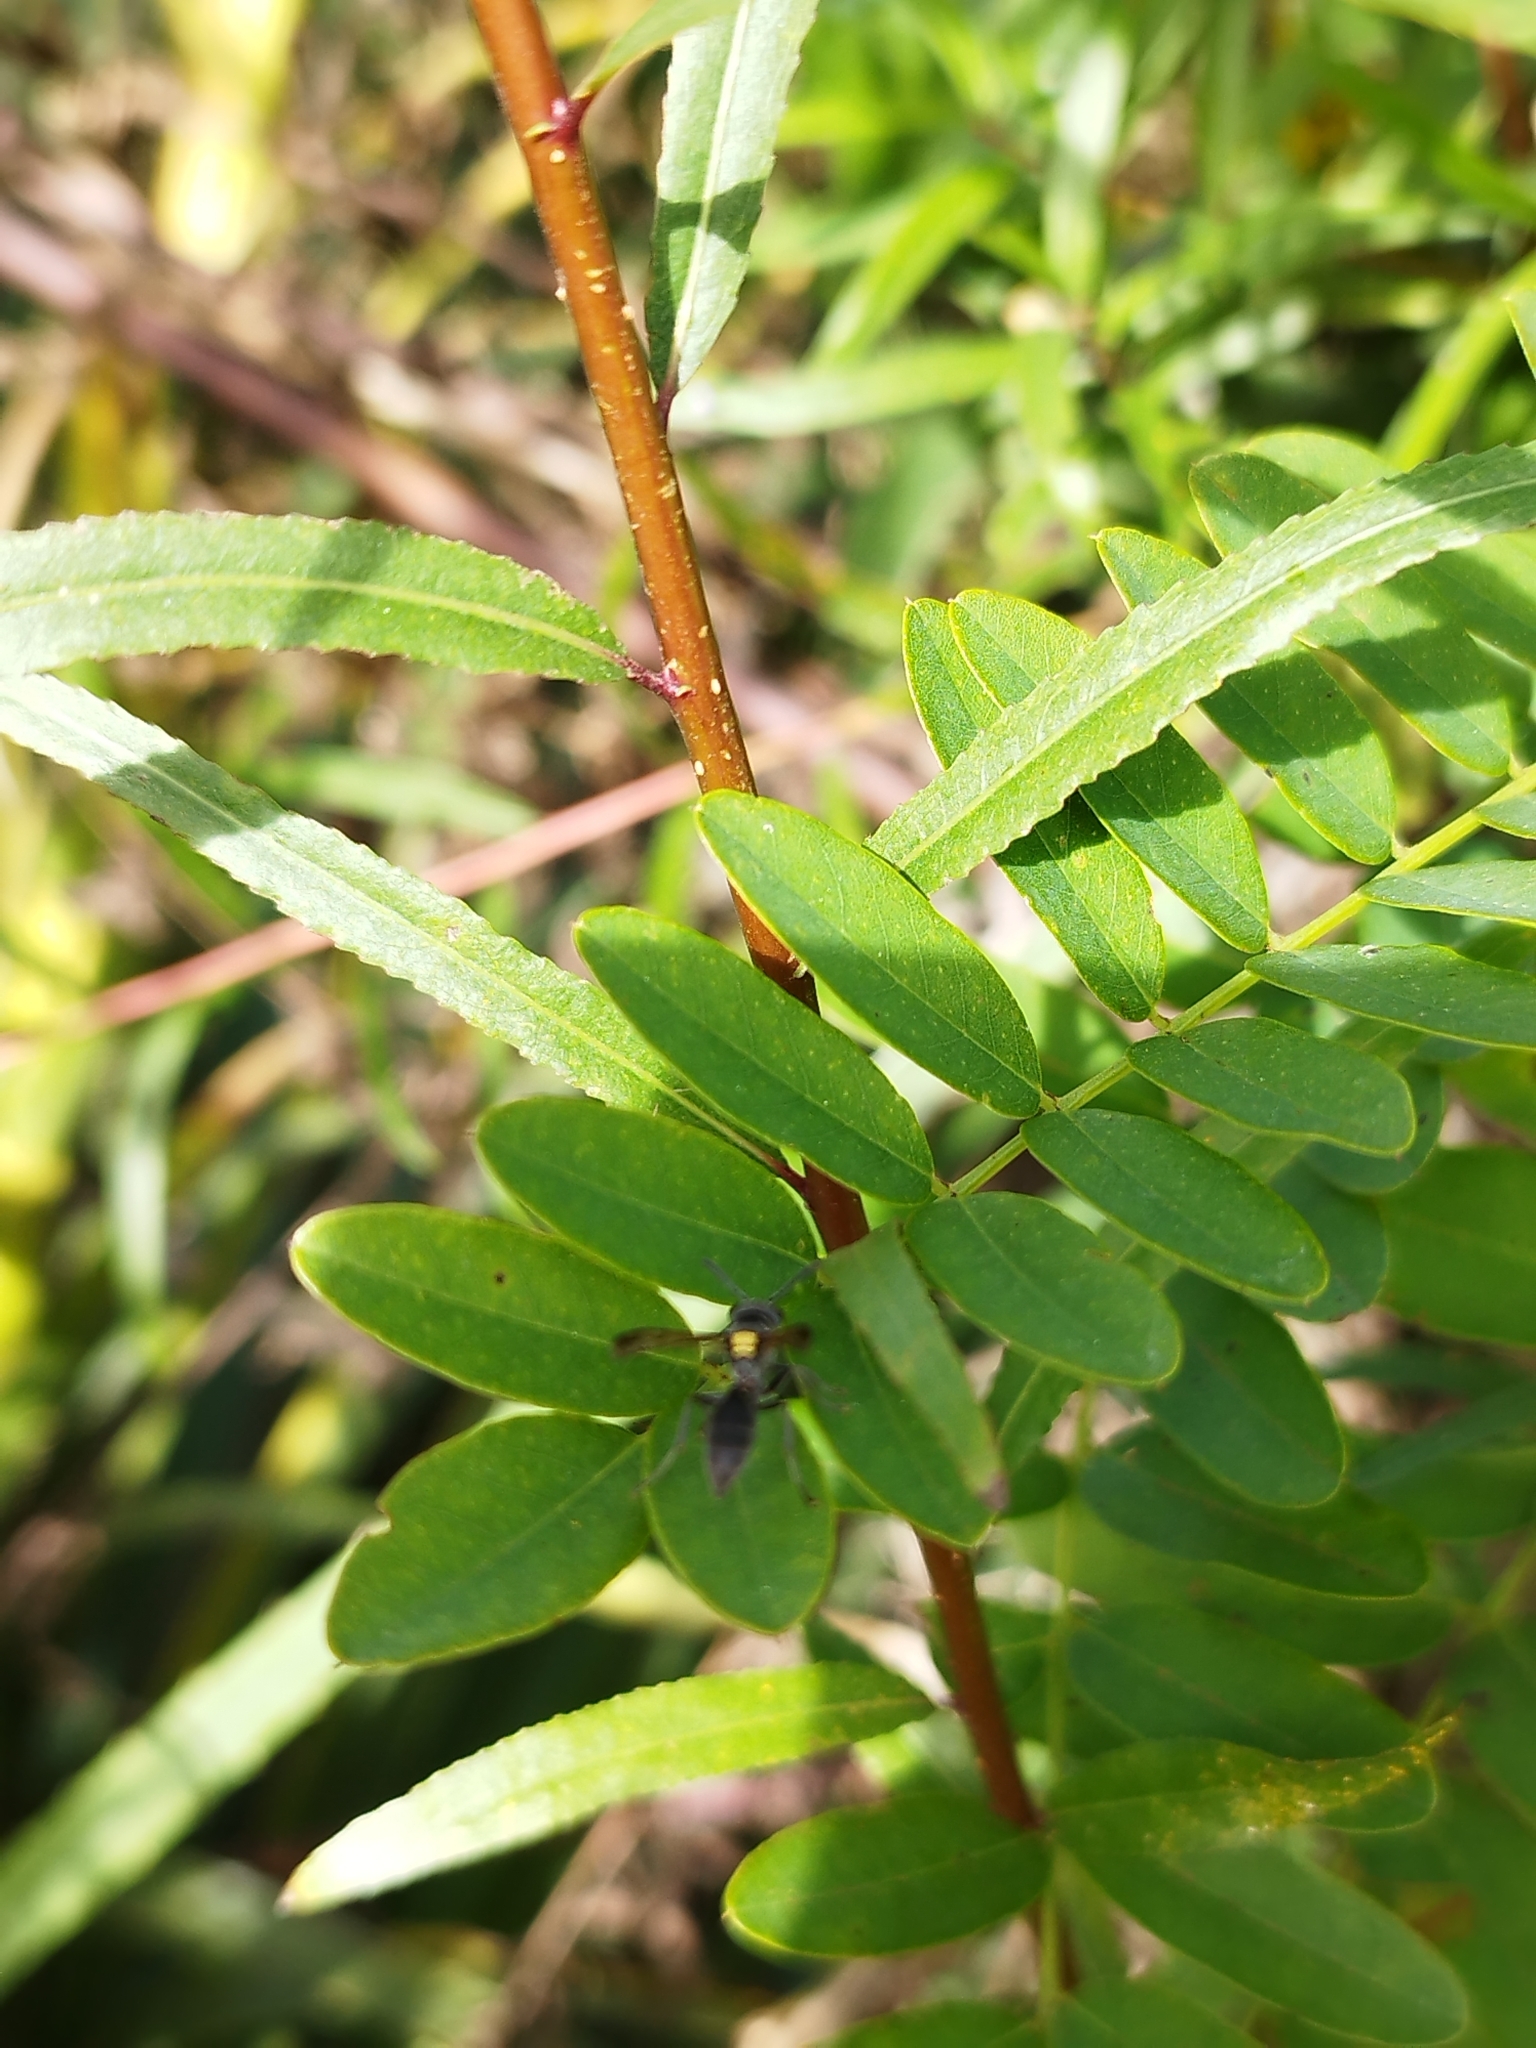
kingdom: Animalia
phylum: Arthropoda
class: Insecta
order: Hymenoptera
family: Eumenidae
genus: Polybia
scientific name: Polybia scutellaris
